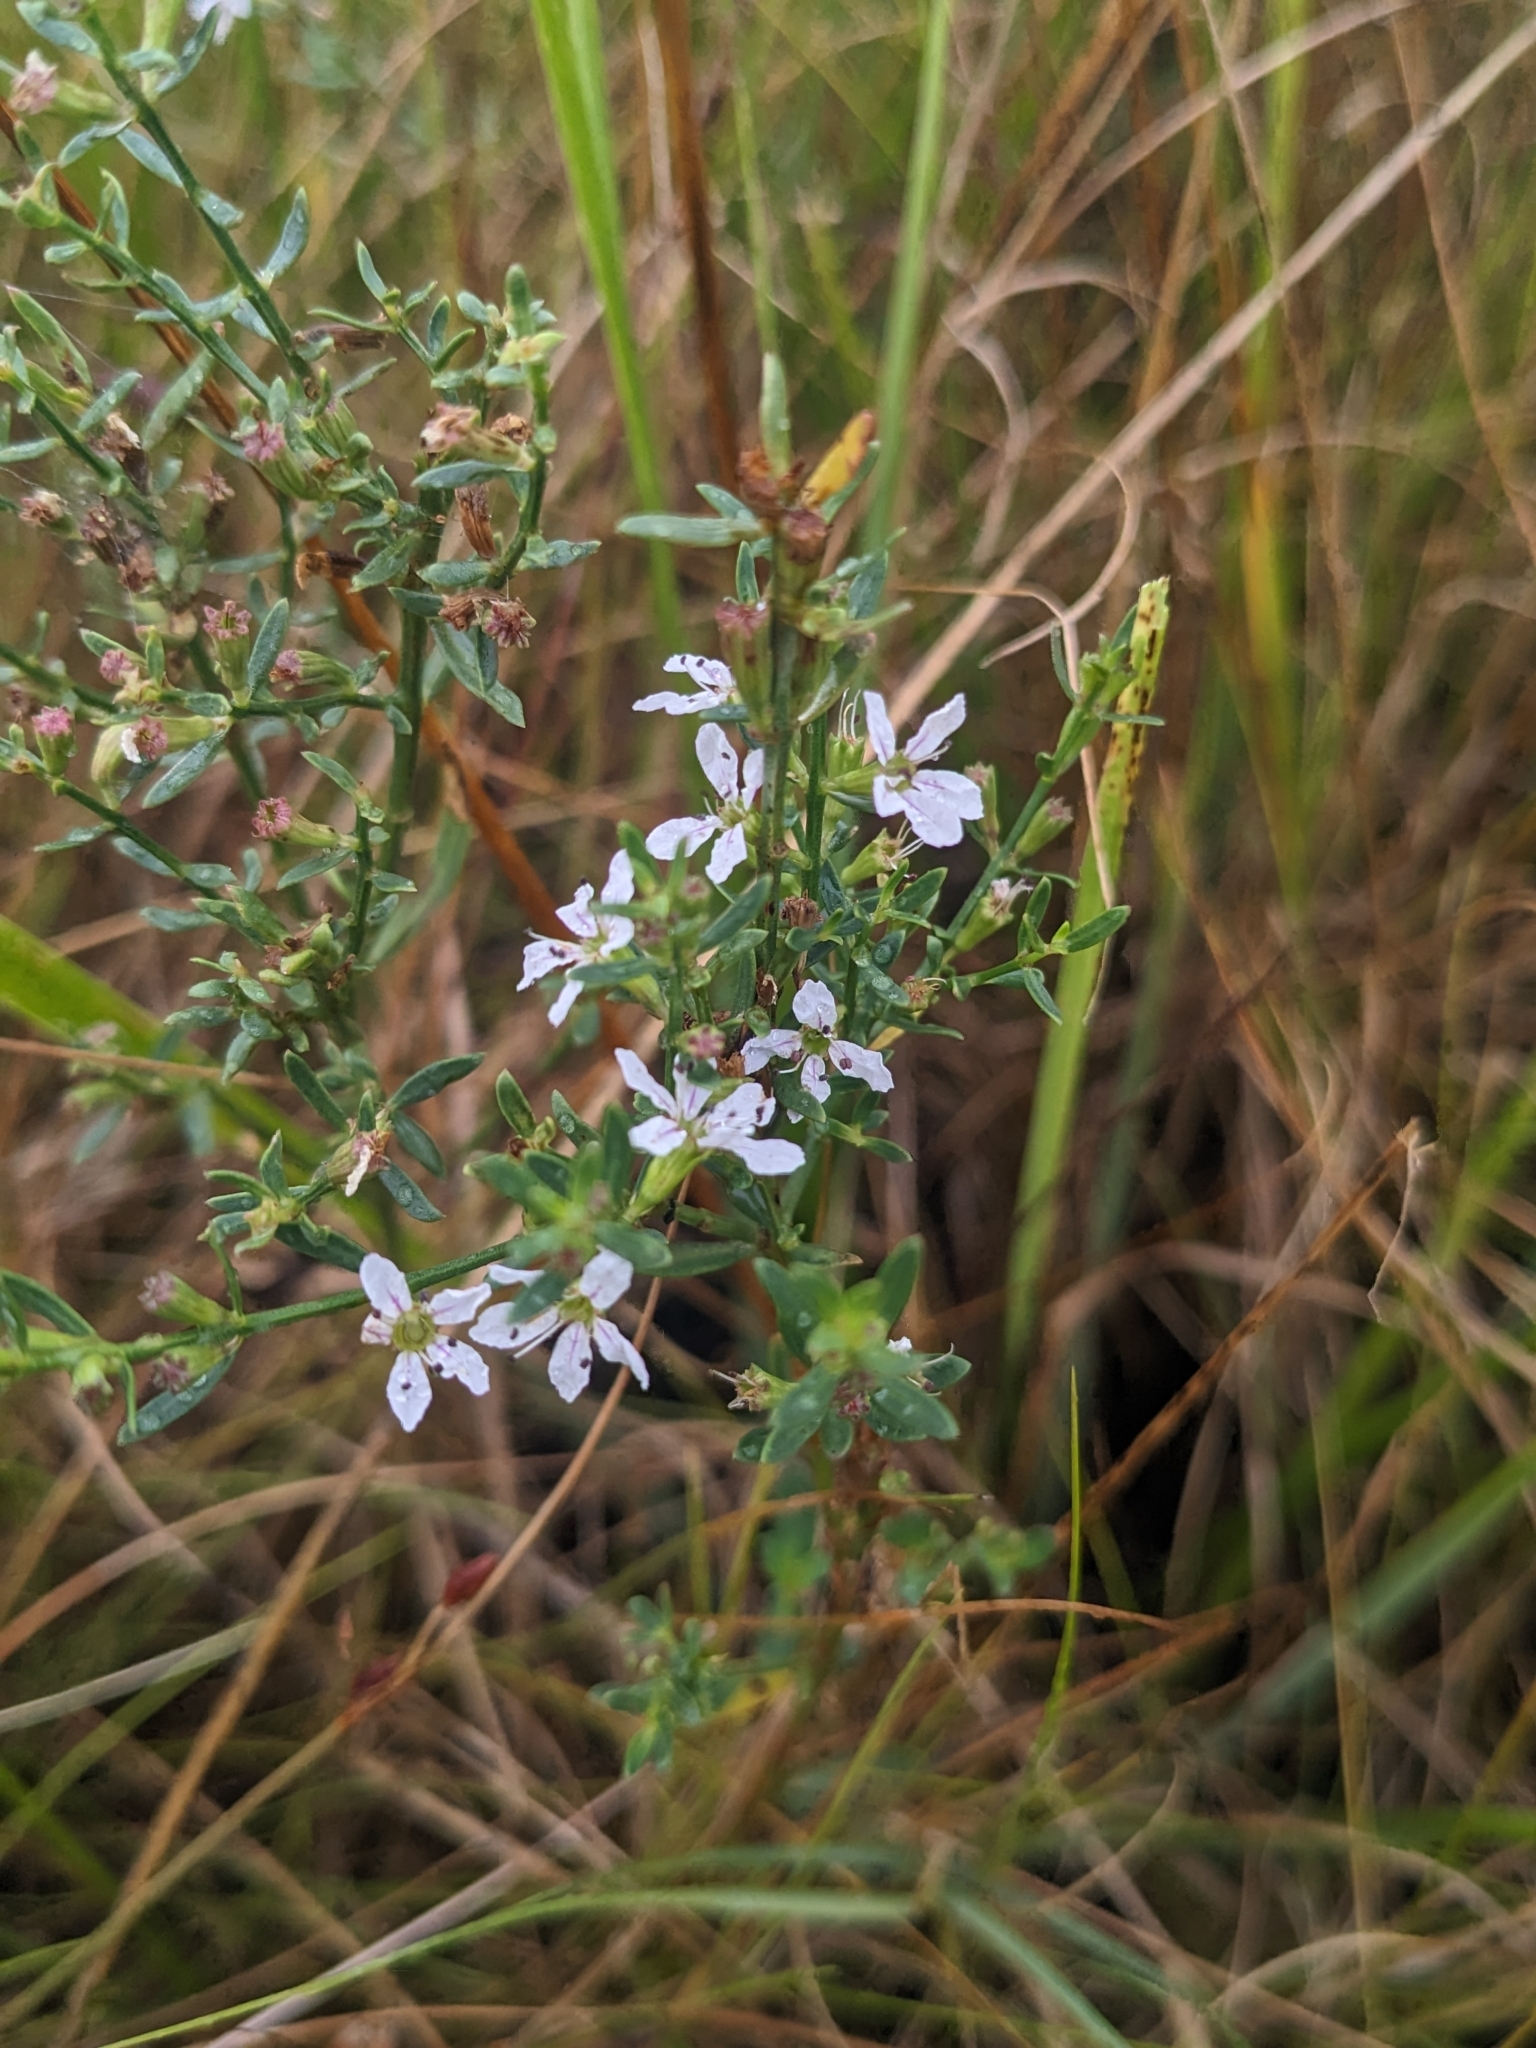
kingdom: Plantae
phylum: Tracheophyta
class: Magnoliopsida
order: Myrtales
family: Lythraceae
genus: Lythrum
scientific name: Lythrum lineare
